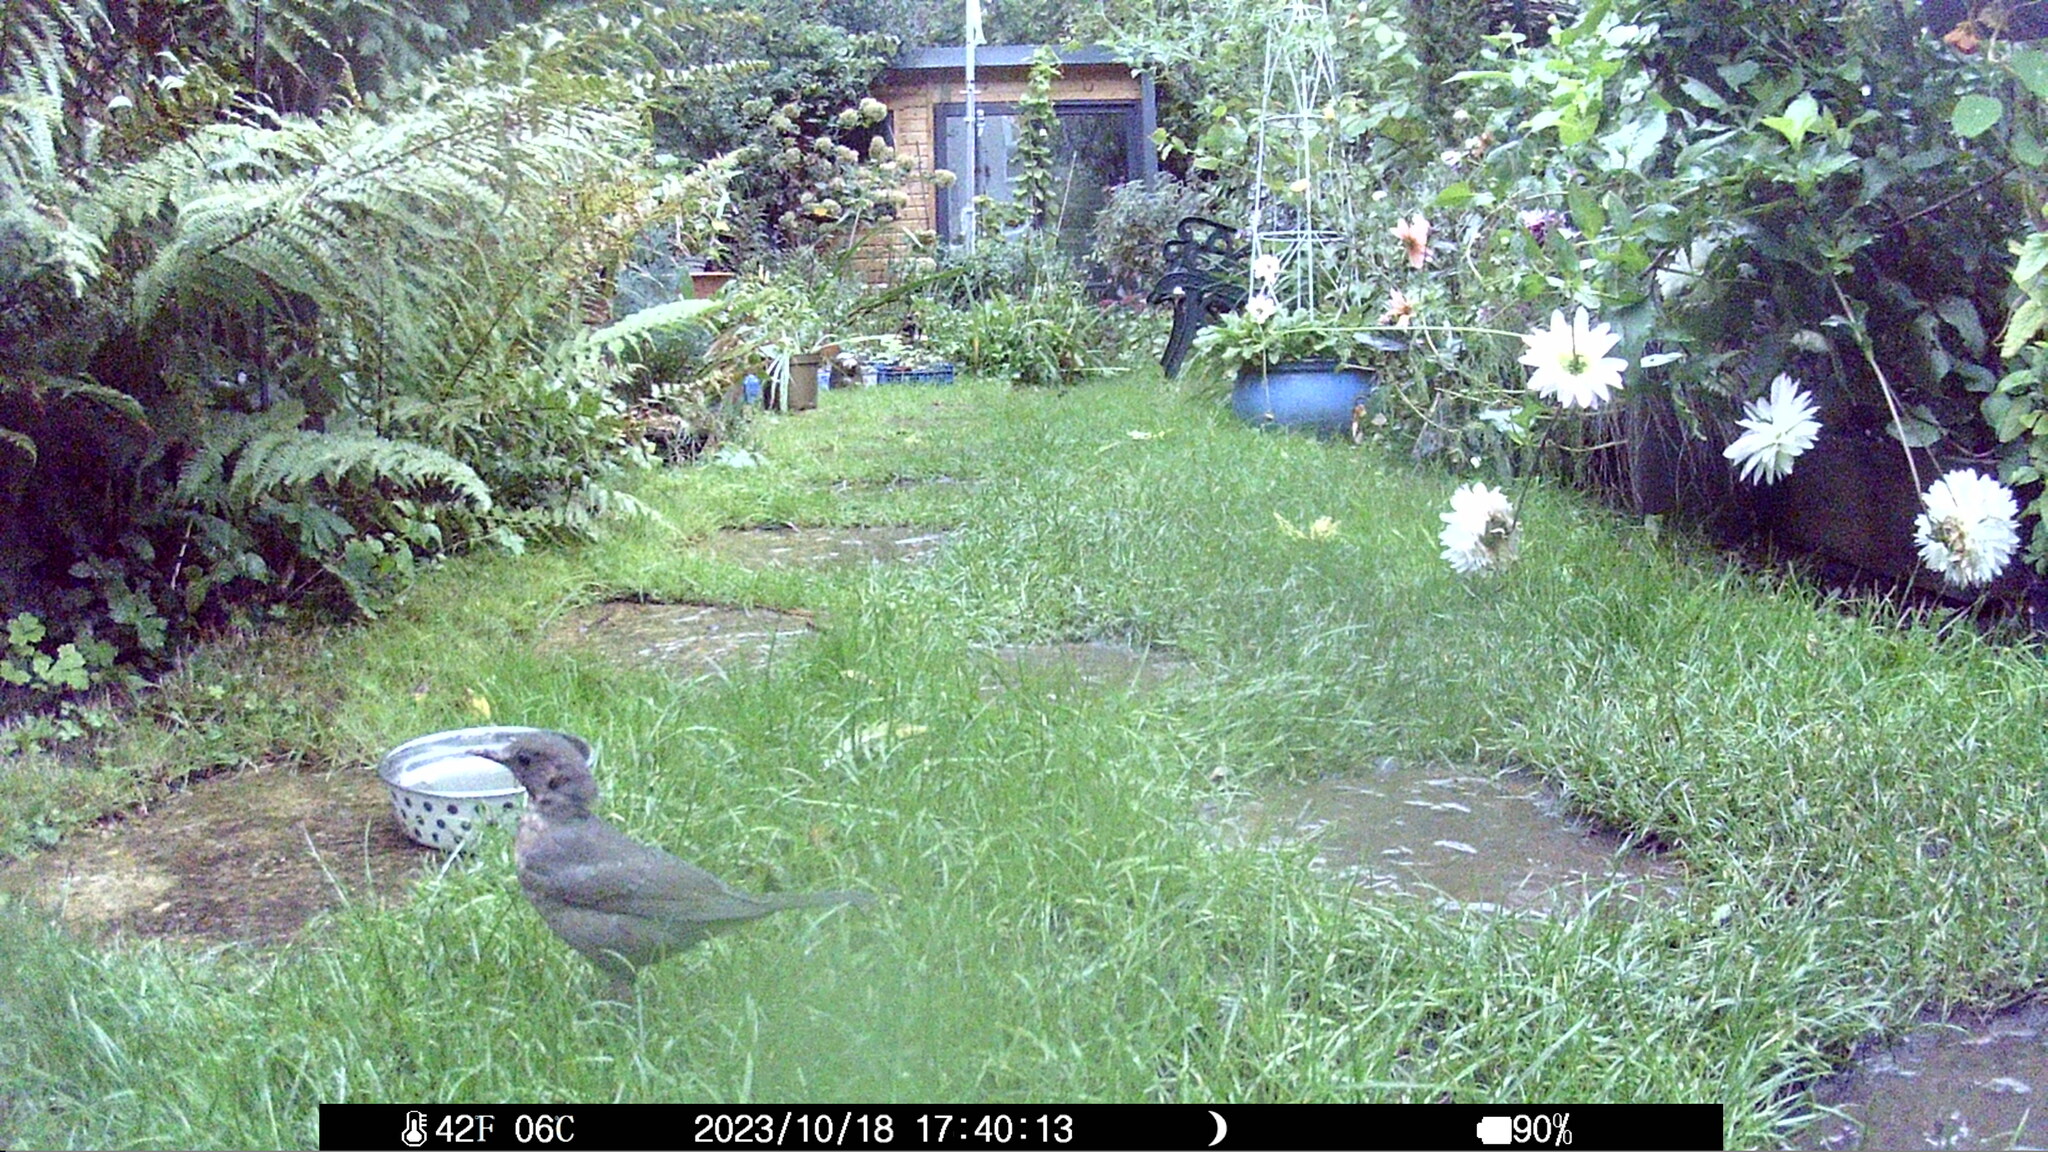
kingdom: Animalia
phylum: Chordata
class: Aves
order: Passeriformes
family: Turdidae
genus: Turdus
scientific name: Turdus merula
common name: Common blackbird
